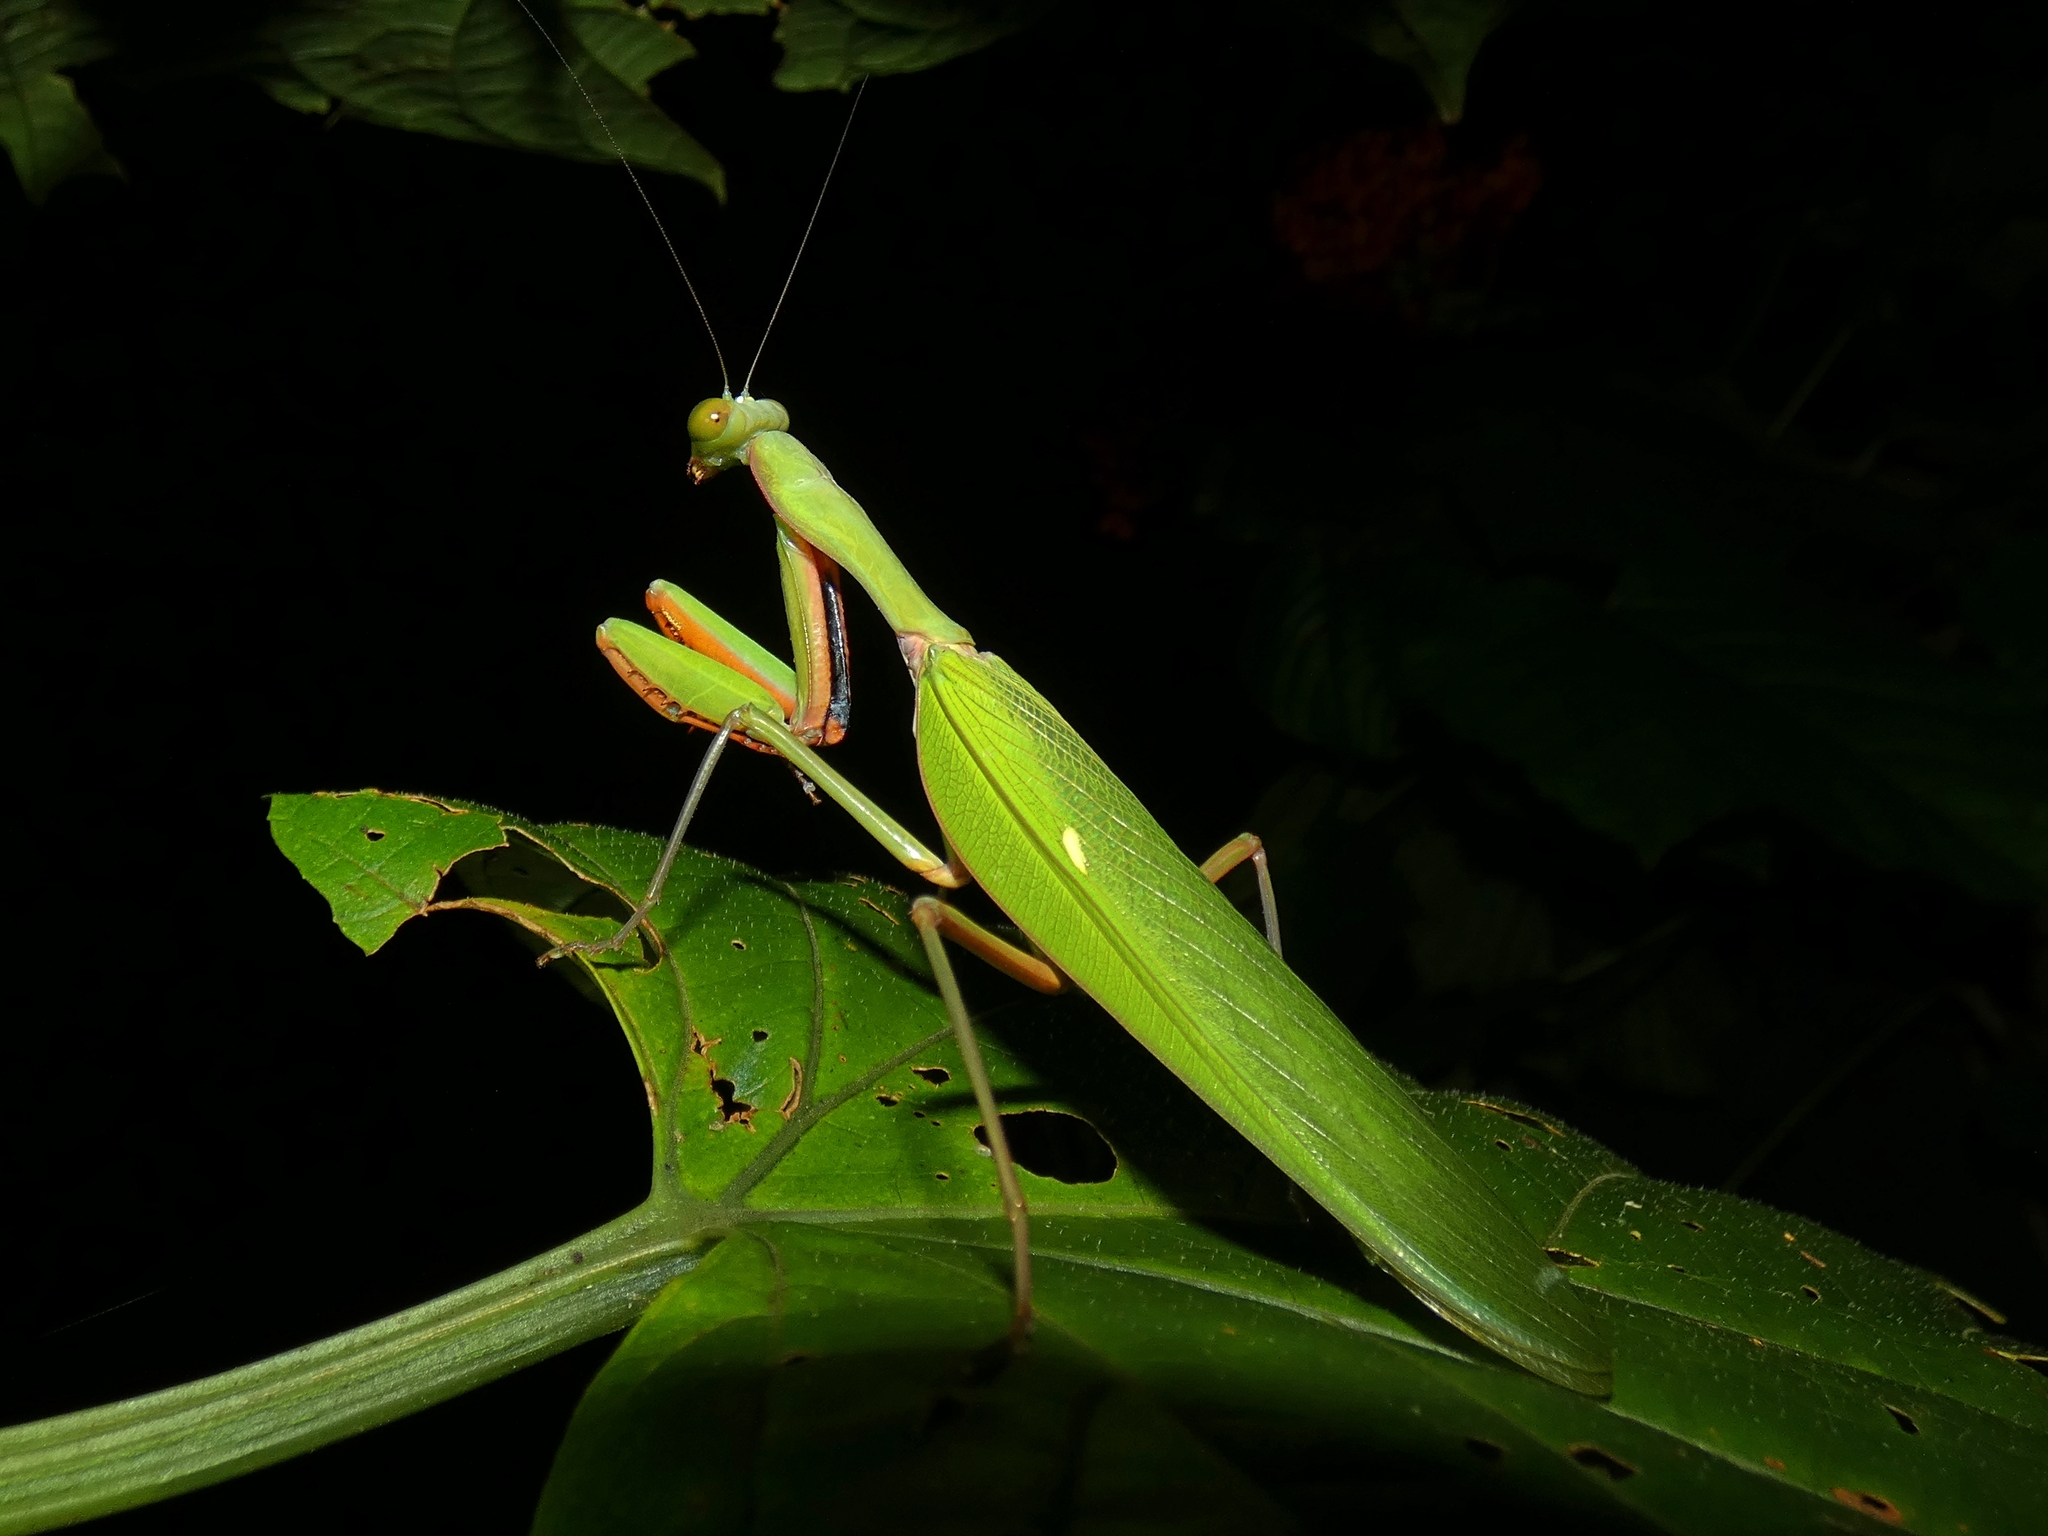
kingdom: Animalia
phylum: Arthropoda
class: Insecta
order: Mantodea
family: Mantidae
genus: Hierodula
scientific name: Hierodula majuscula
